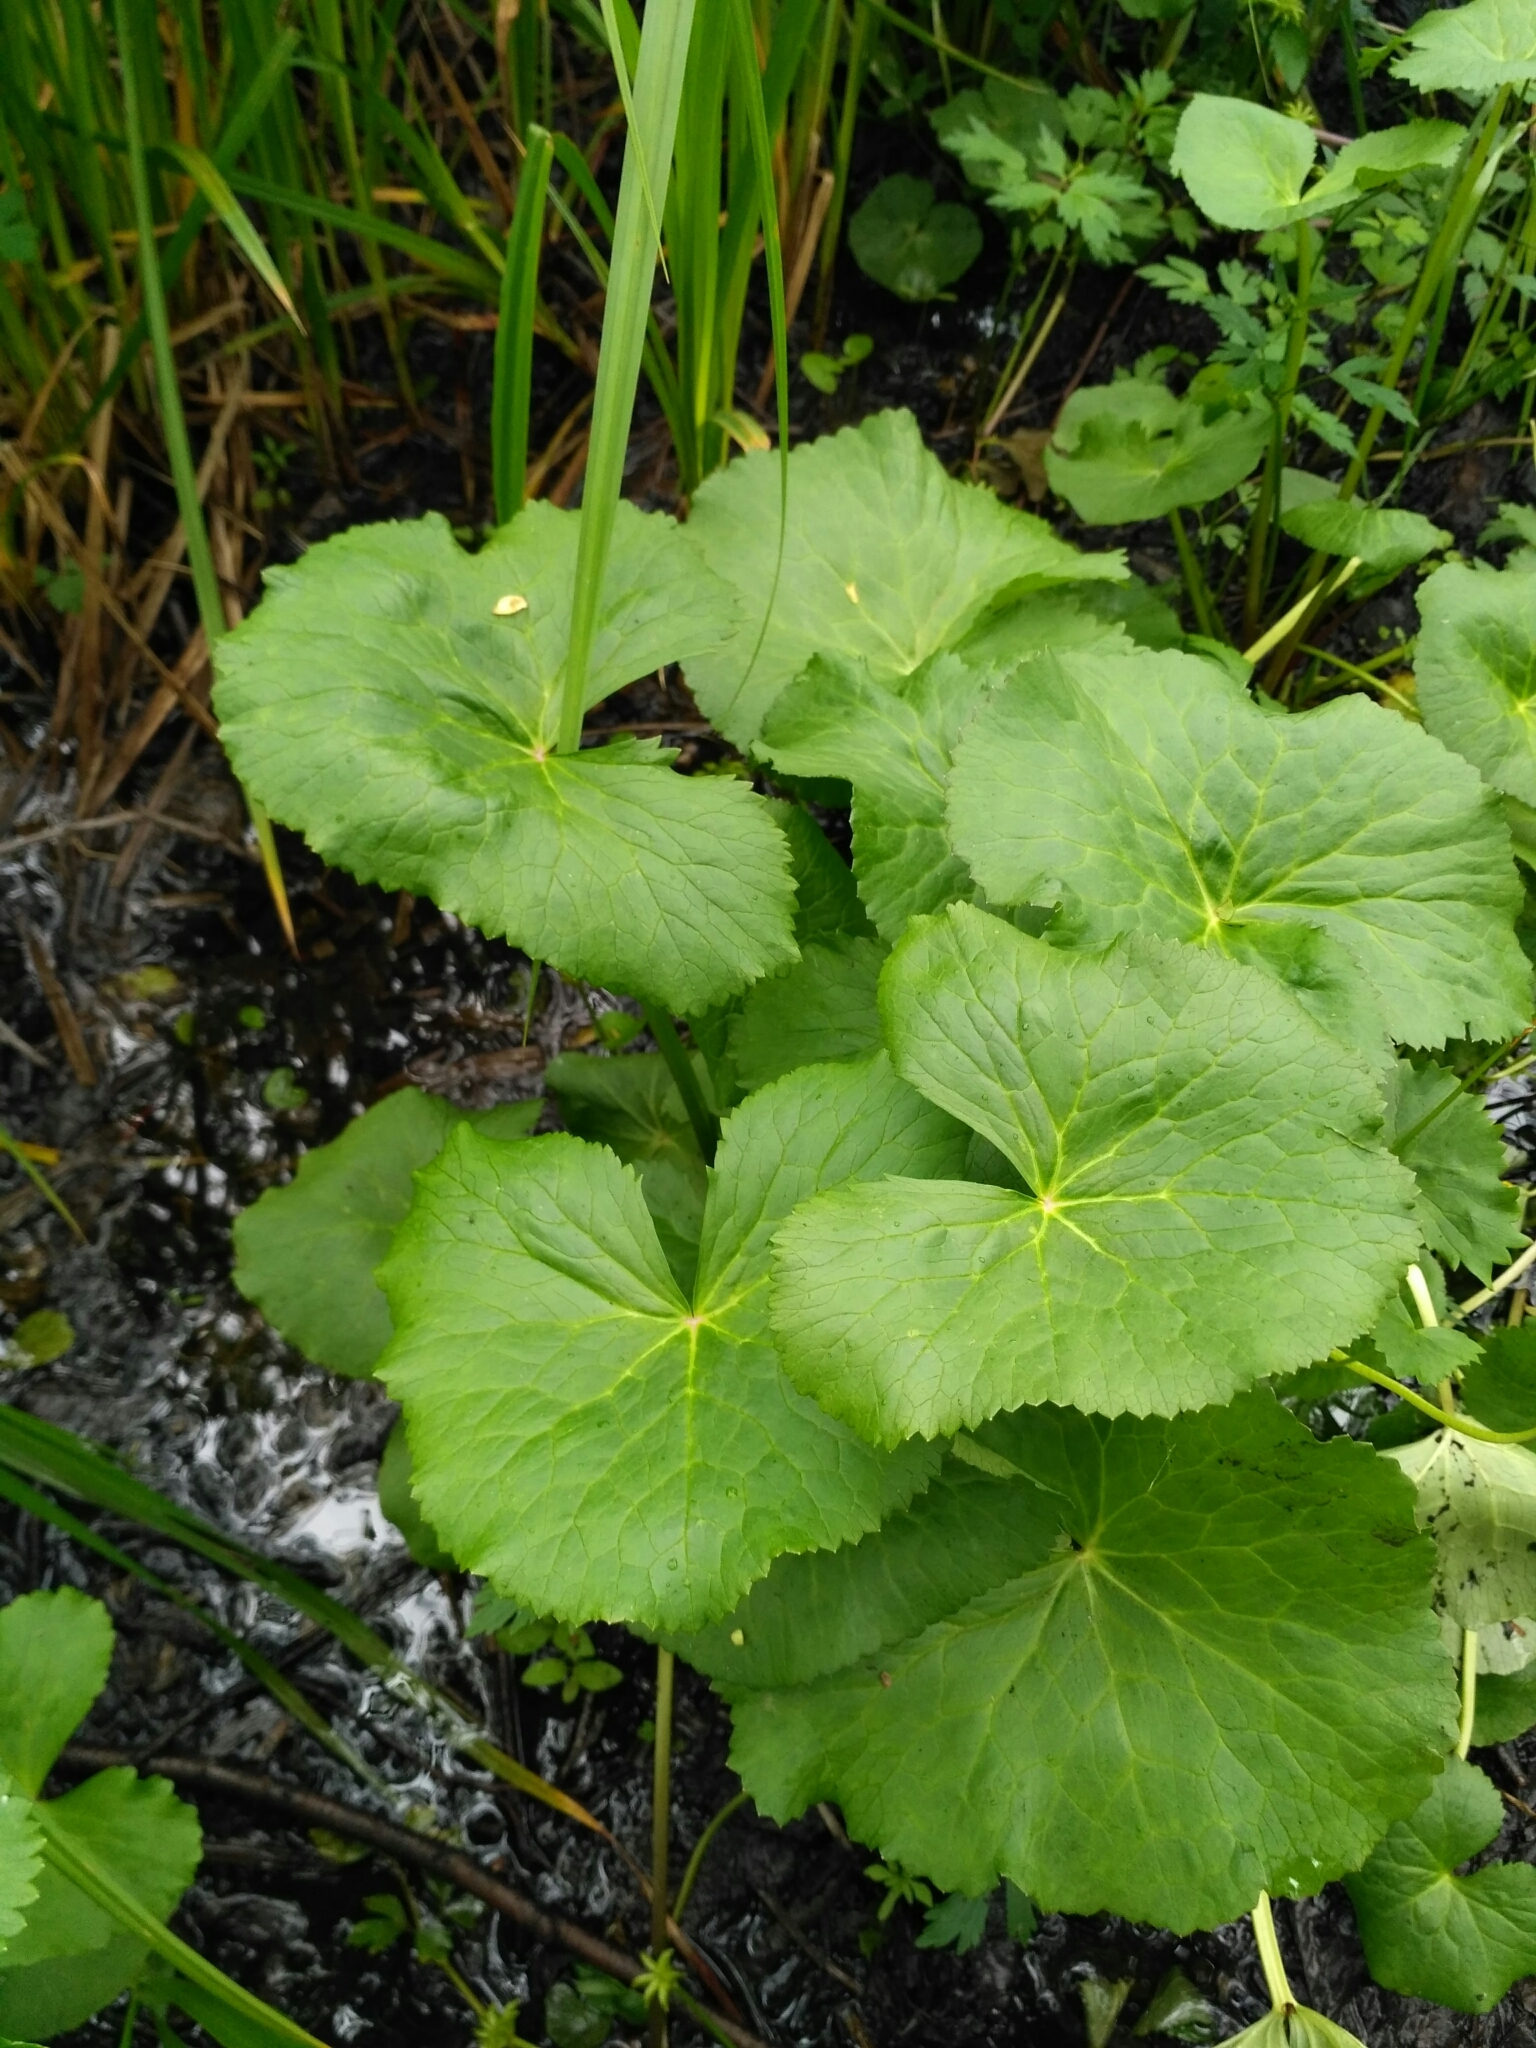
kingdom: Plantae
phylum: Tracheophyta
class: Magnoliopsida
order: Ranunculales
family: Ranunculaceae
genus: Caltha
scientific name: Caltha palustris
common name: Marsh marigold
